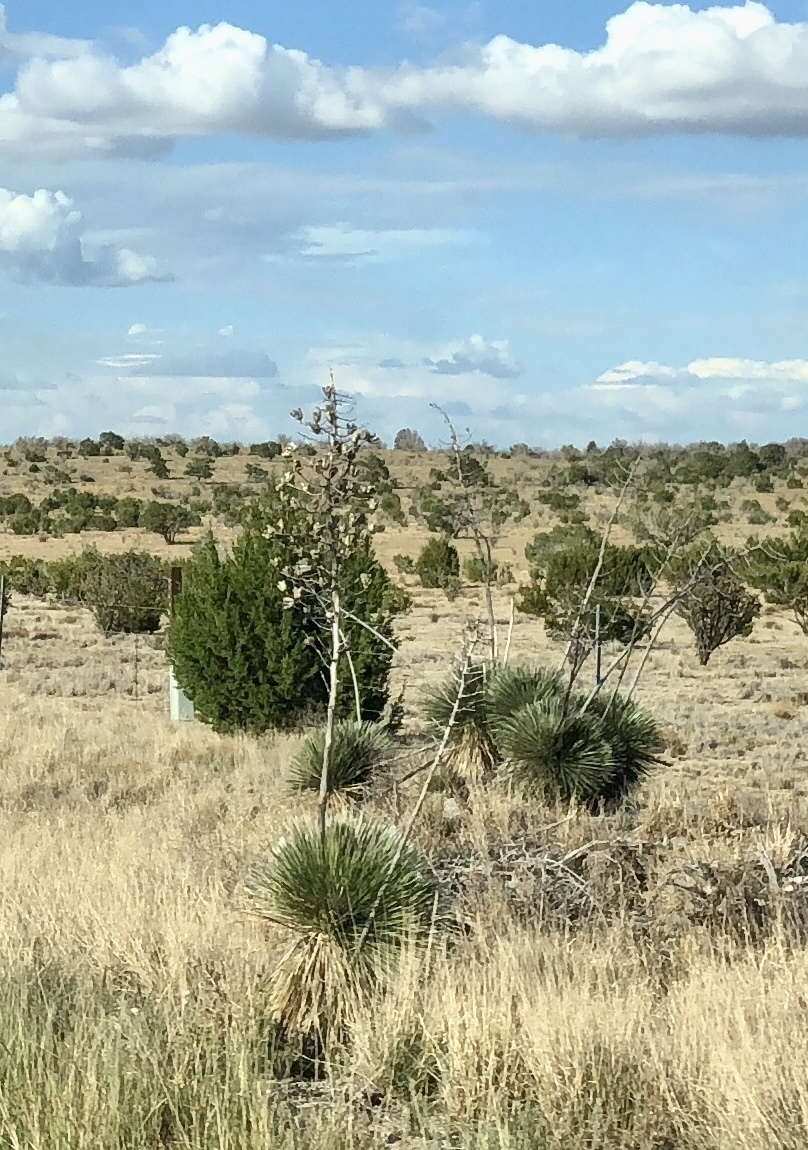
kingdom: Plantae
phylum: Tracheophyta
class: Liliopsida
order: Asparagales
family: Asparagaceae
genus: Yucca
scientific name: Yucca elata
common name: Palmella
